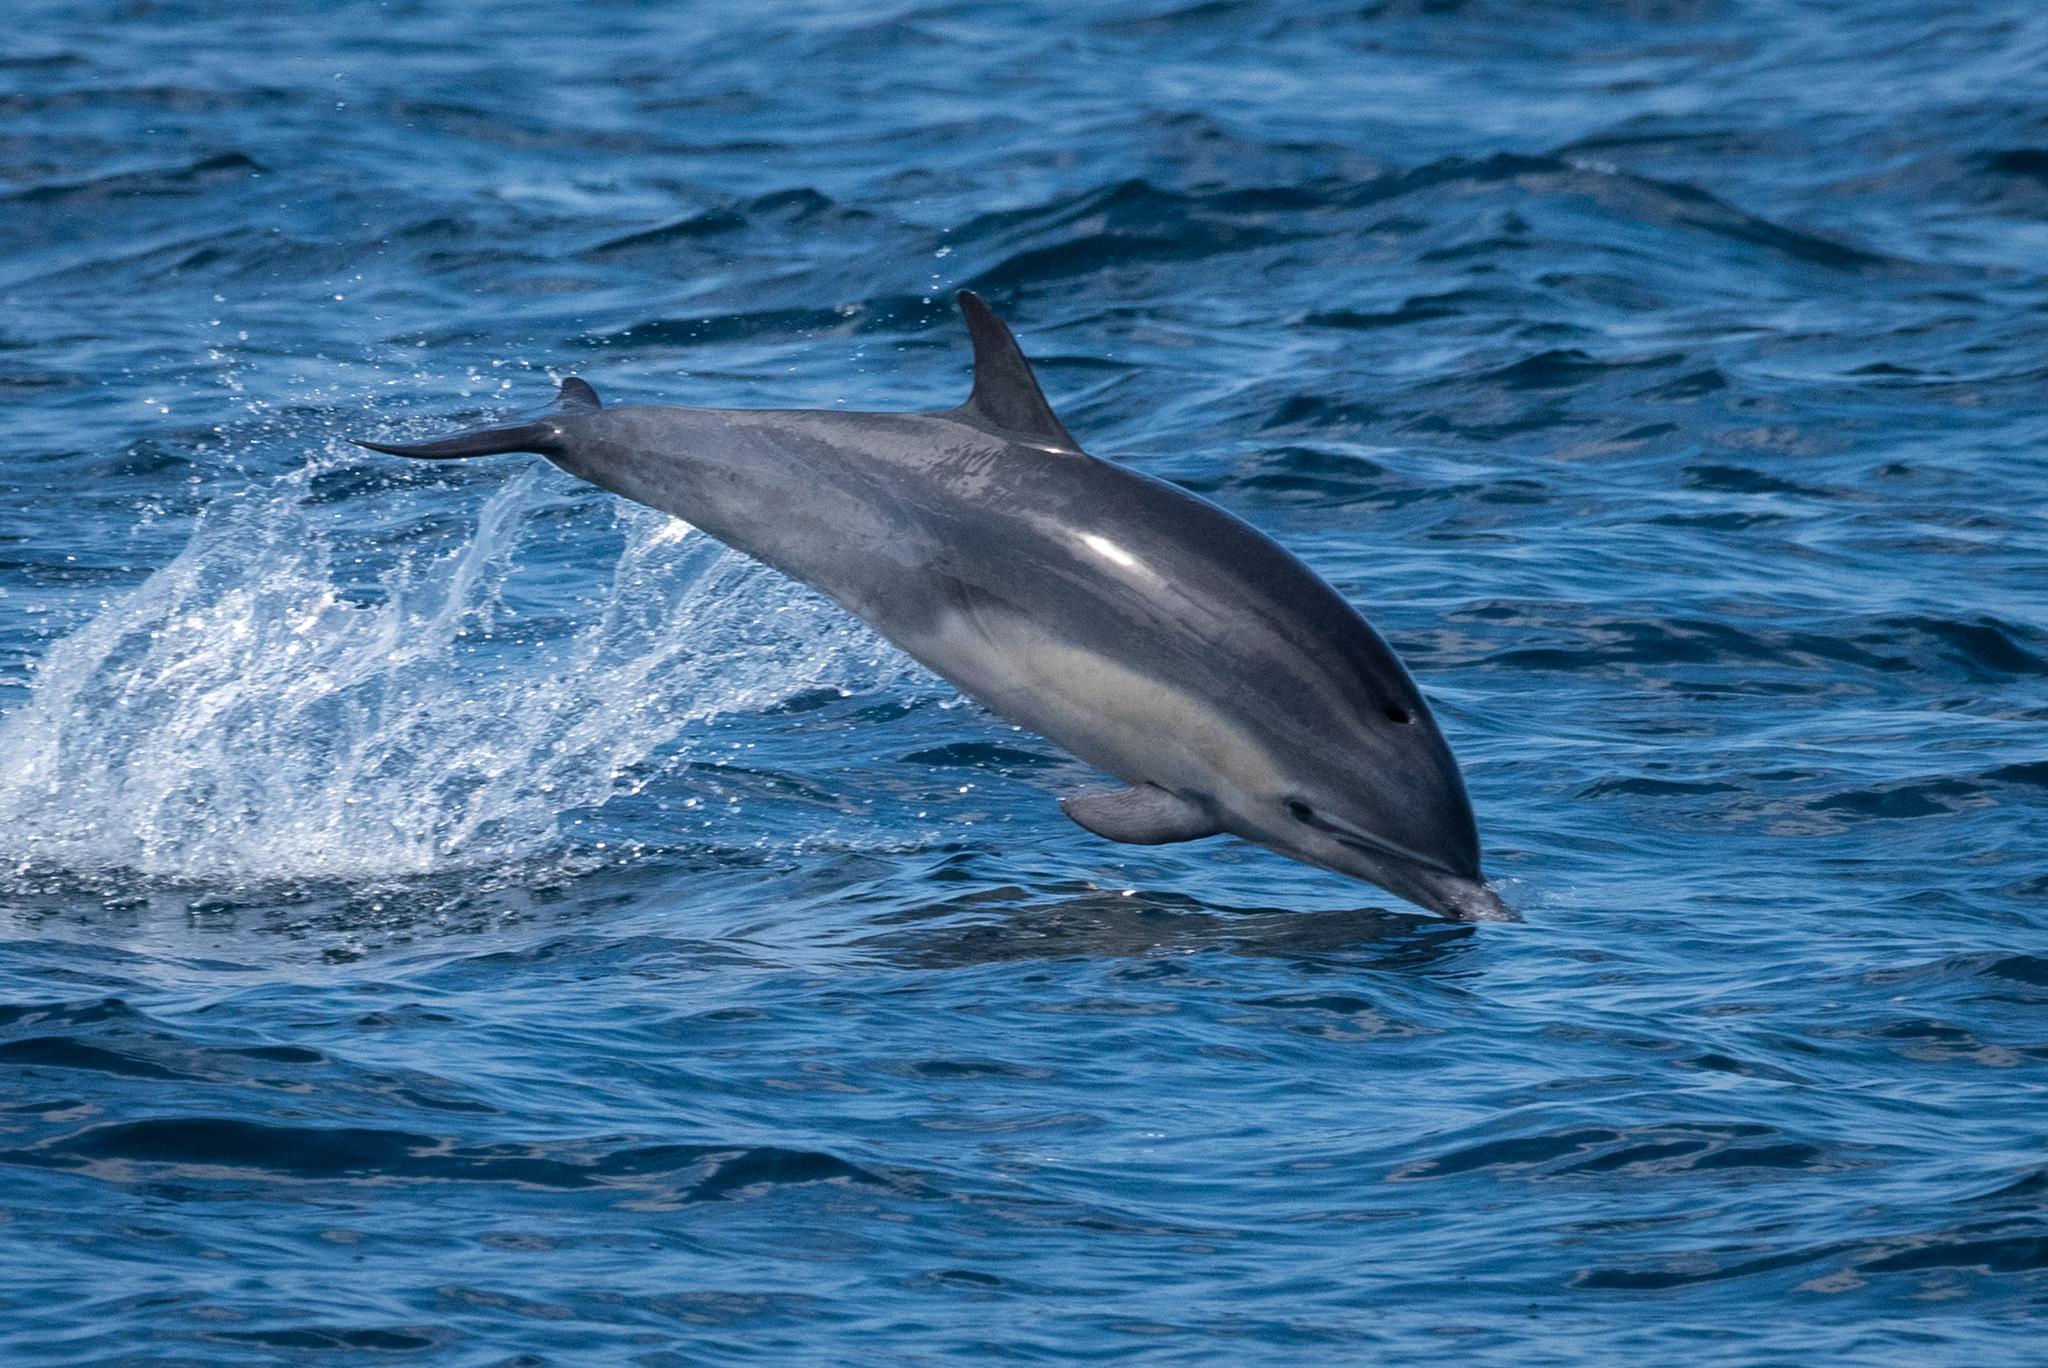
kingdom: Animalia
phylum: Chordata
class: Mammalia
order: Cetacea
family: Delphinidae
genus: Delphinus
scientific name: Delphinus delphis
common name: Common dolphin
